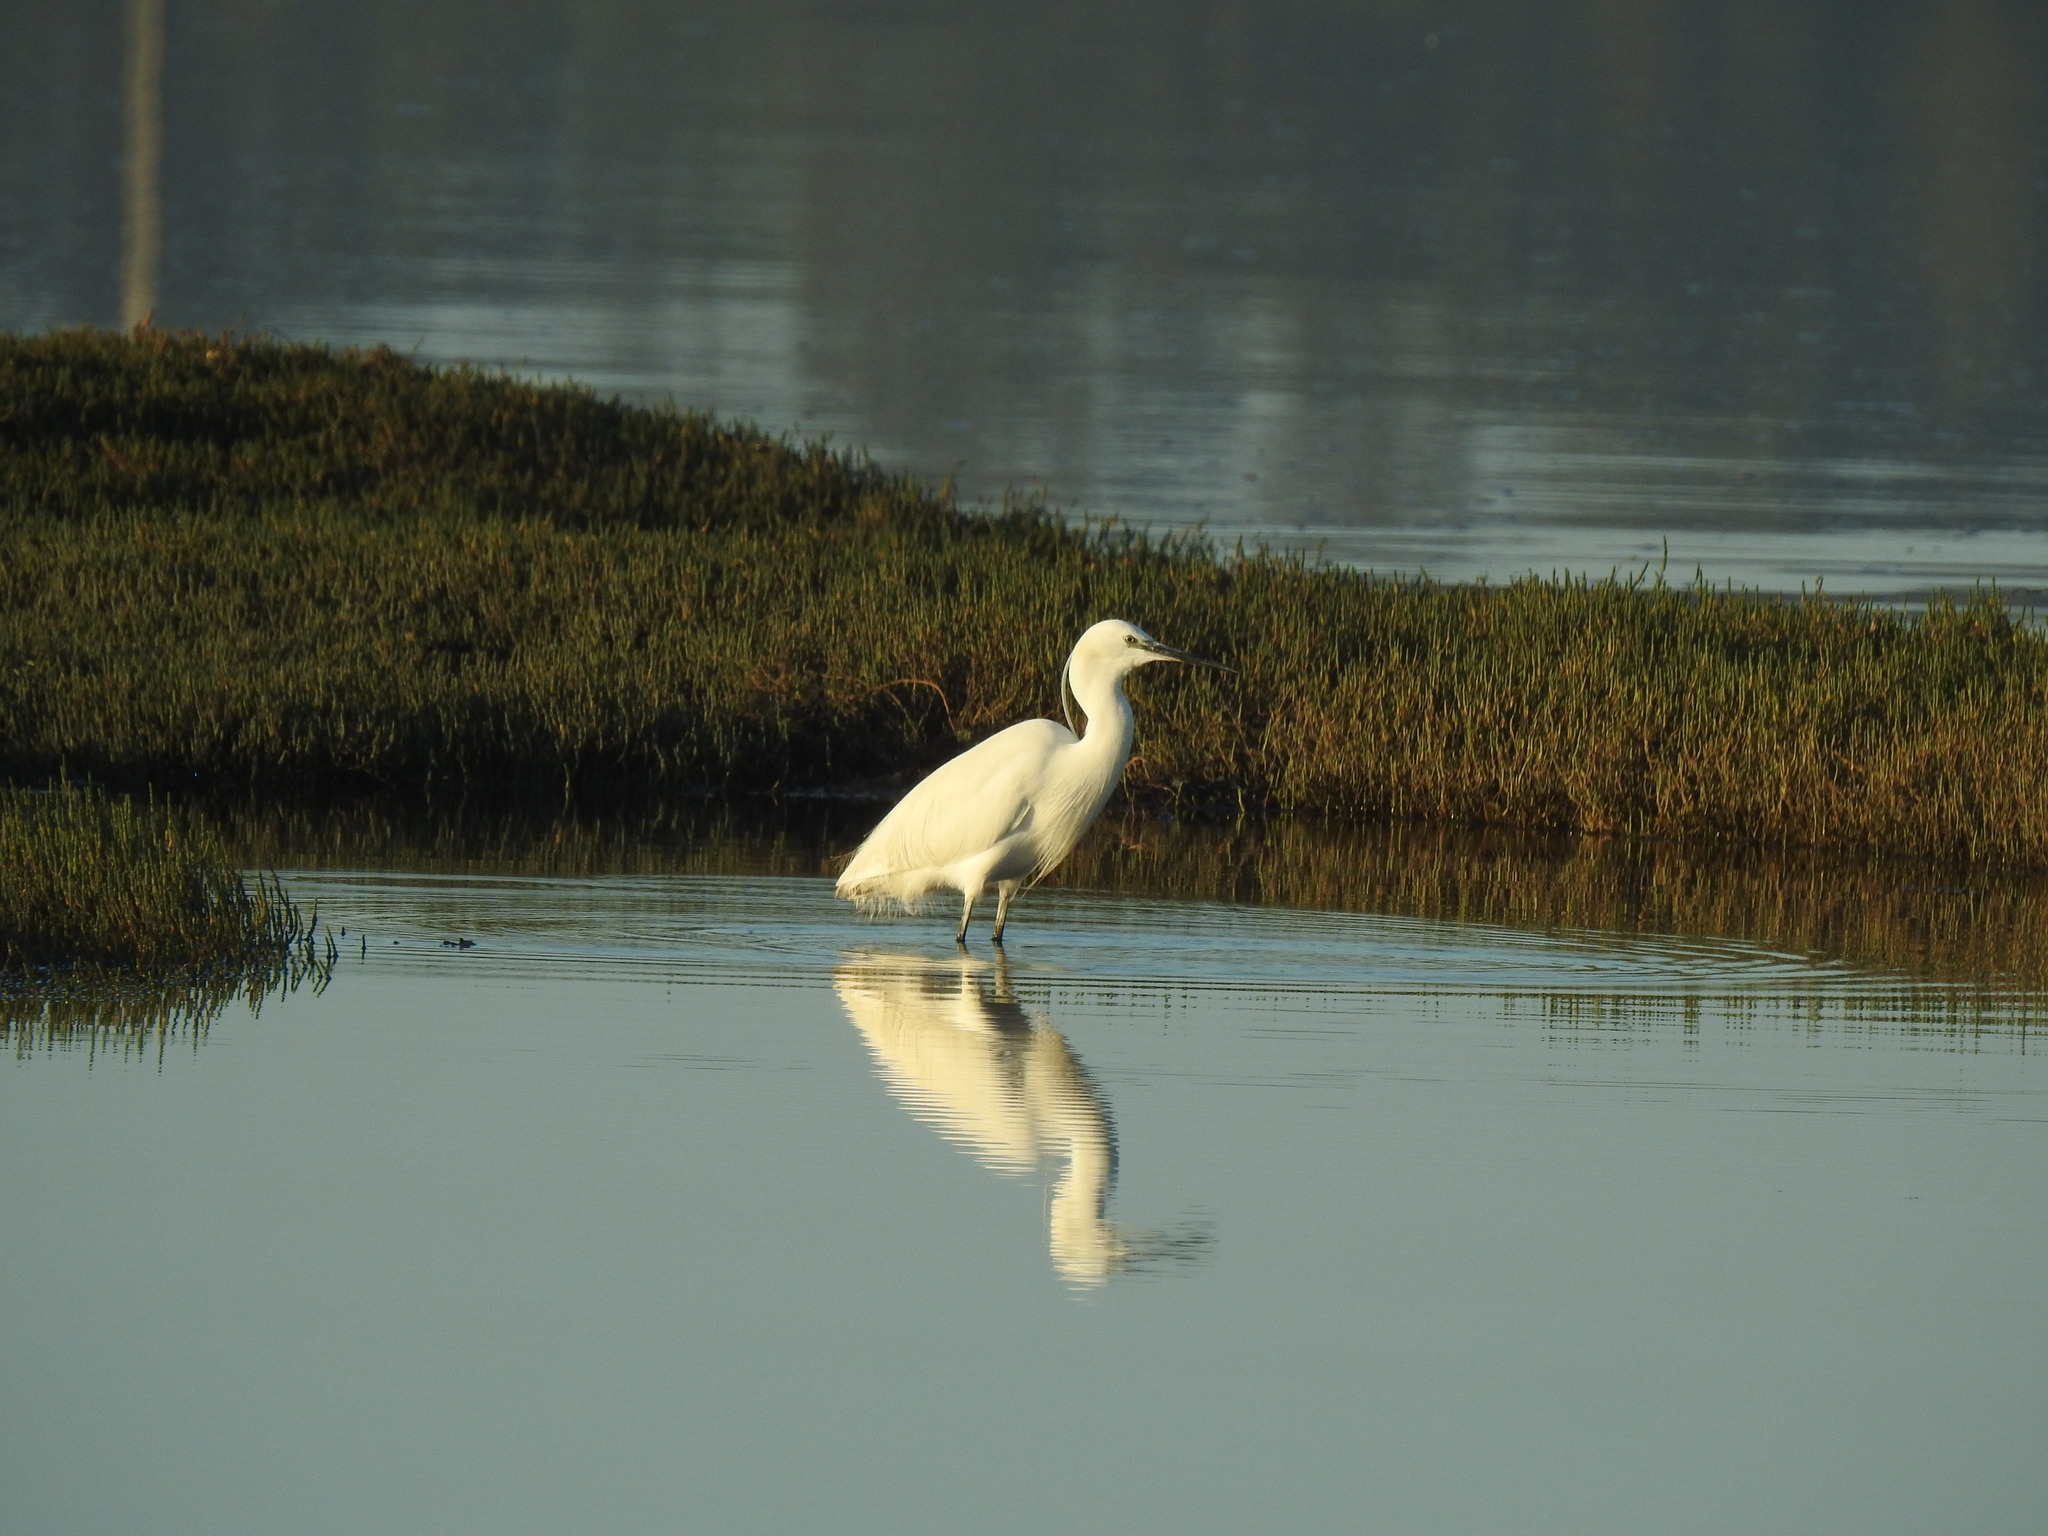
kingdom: Animalia
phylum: Chordata
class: Aves
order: Pelecaniformes
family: Ardeidae
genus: Egretta
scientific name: Egretta garzetta
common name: Little egret
